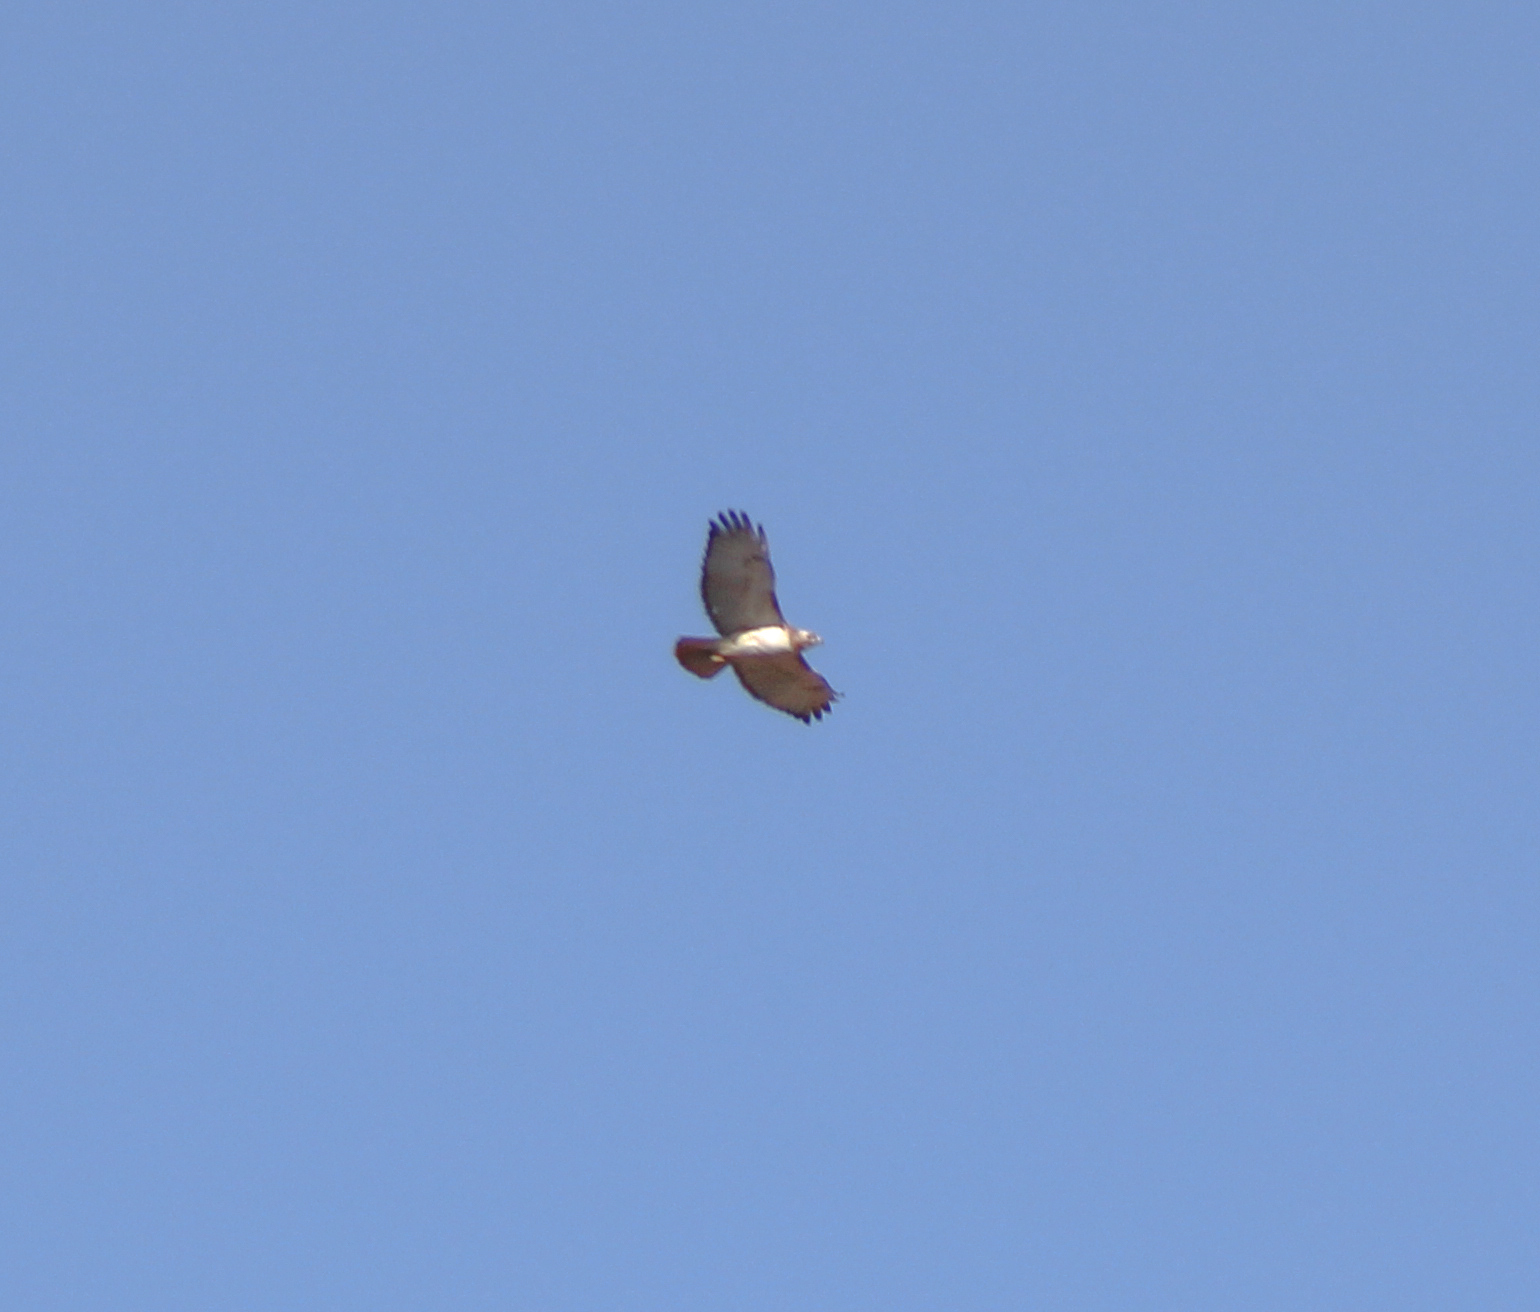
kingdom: Animalia
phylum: Chordata
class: Aves
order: Accipitriformes
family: Accipitridae
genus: Buteo
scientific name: Buteo jamaicensis
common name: Red-tailed hawk
